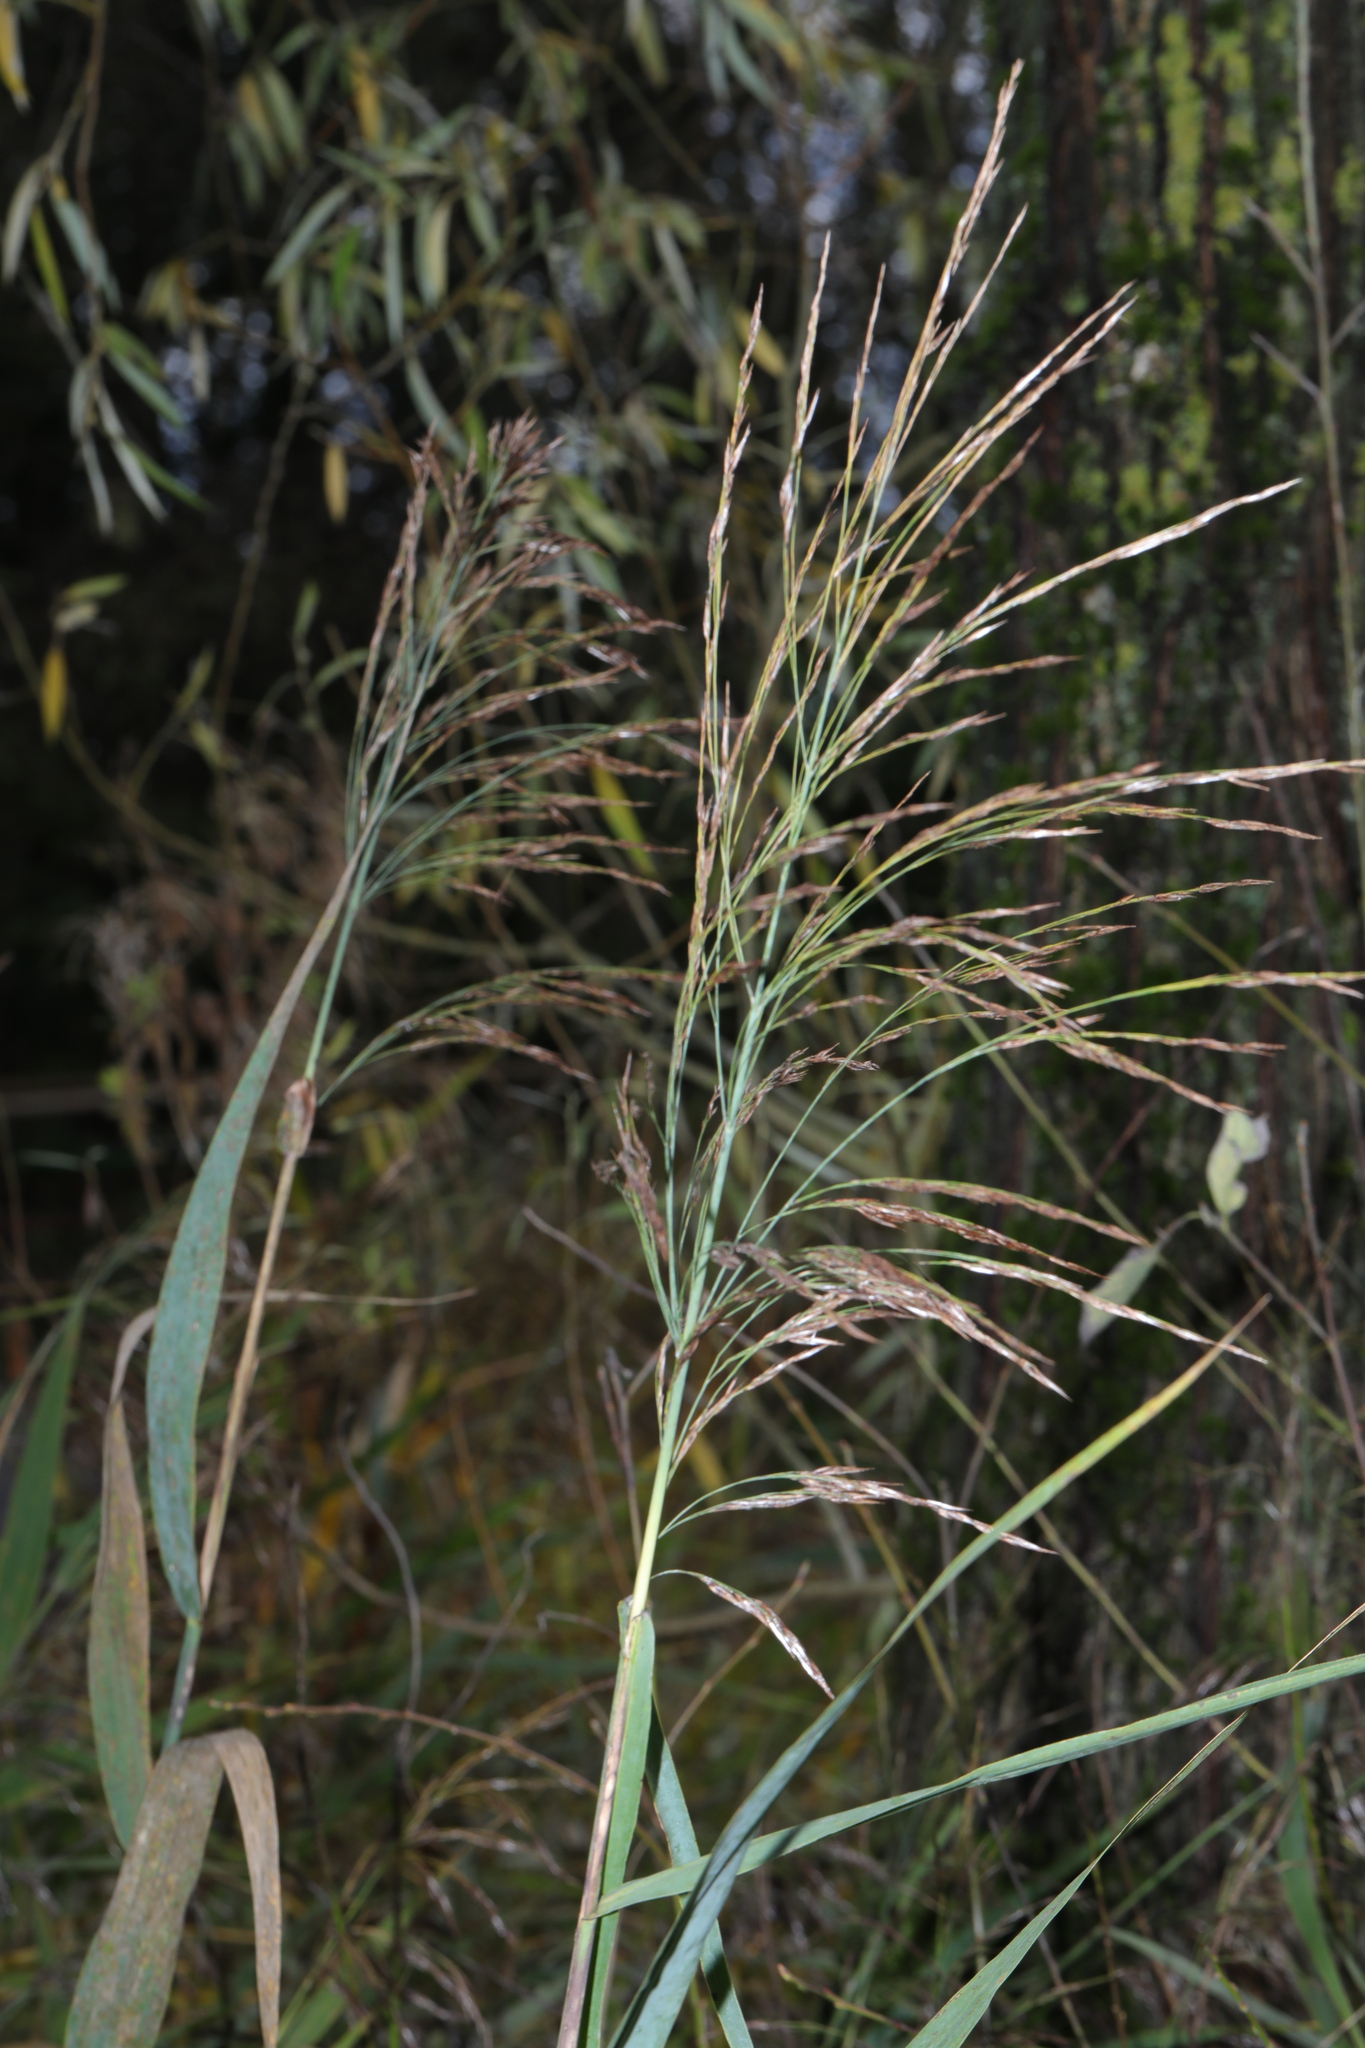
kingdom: Plantae
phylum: Tracheophyta
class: Liliopsida
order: Poales
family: Poaceae
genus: Phragmites
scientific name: Phragmites australis
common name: Common reed
